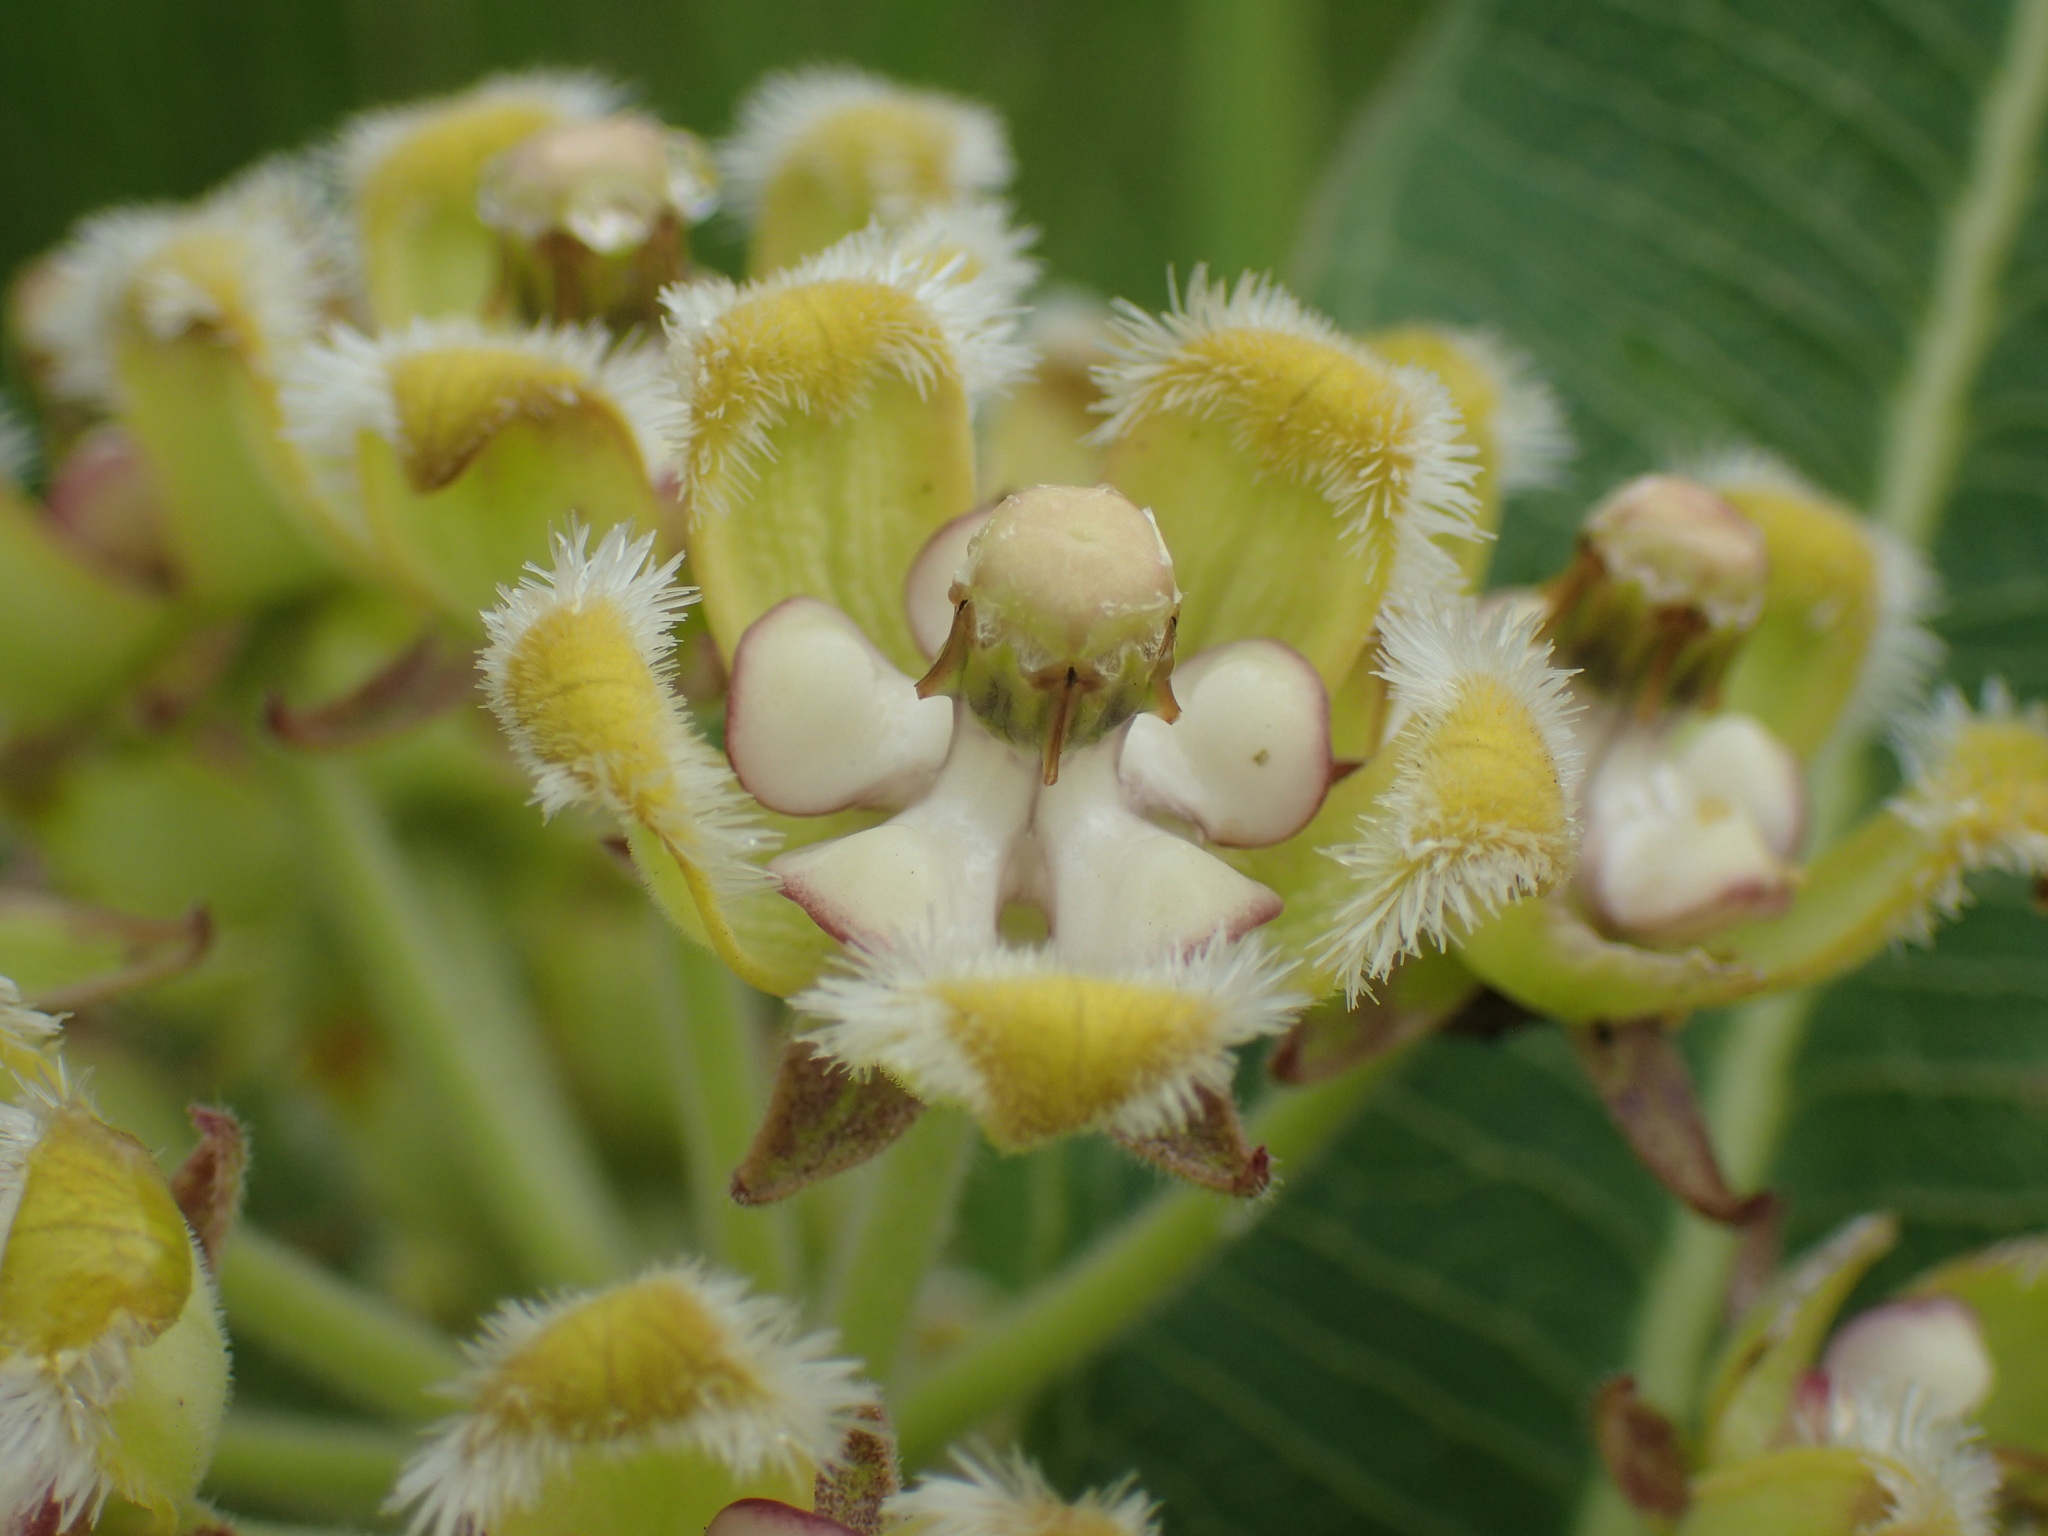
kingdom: Plantae
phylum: Tracheophyta
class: Magnoliopsida
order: Gentianales
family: Apocynaceae
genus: Xysmalobium
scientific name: Xysmalobium undulatum
